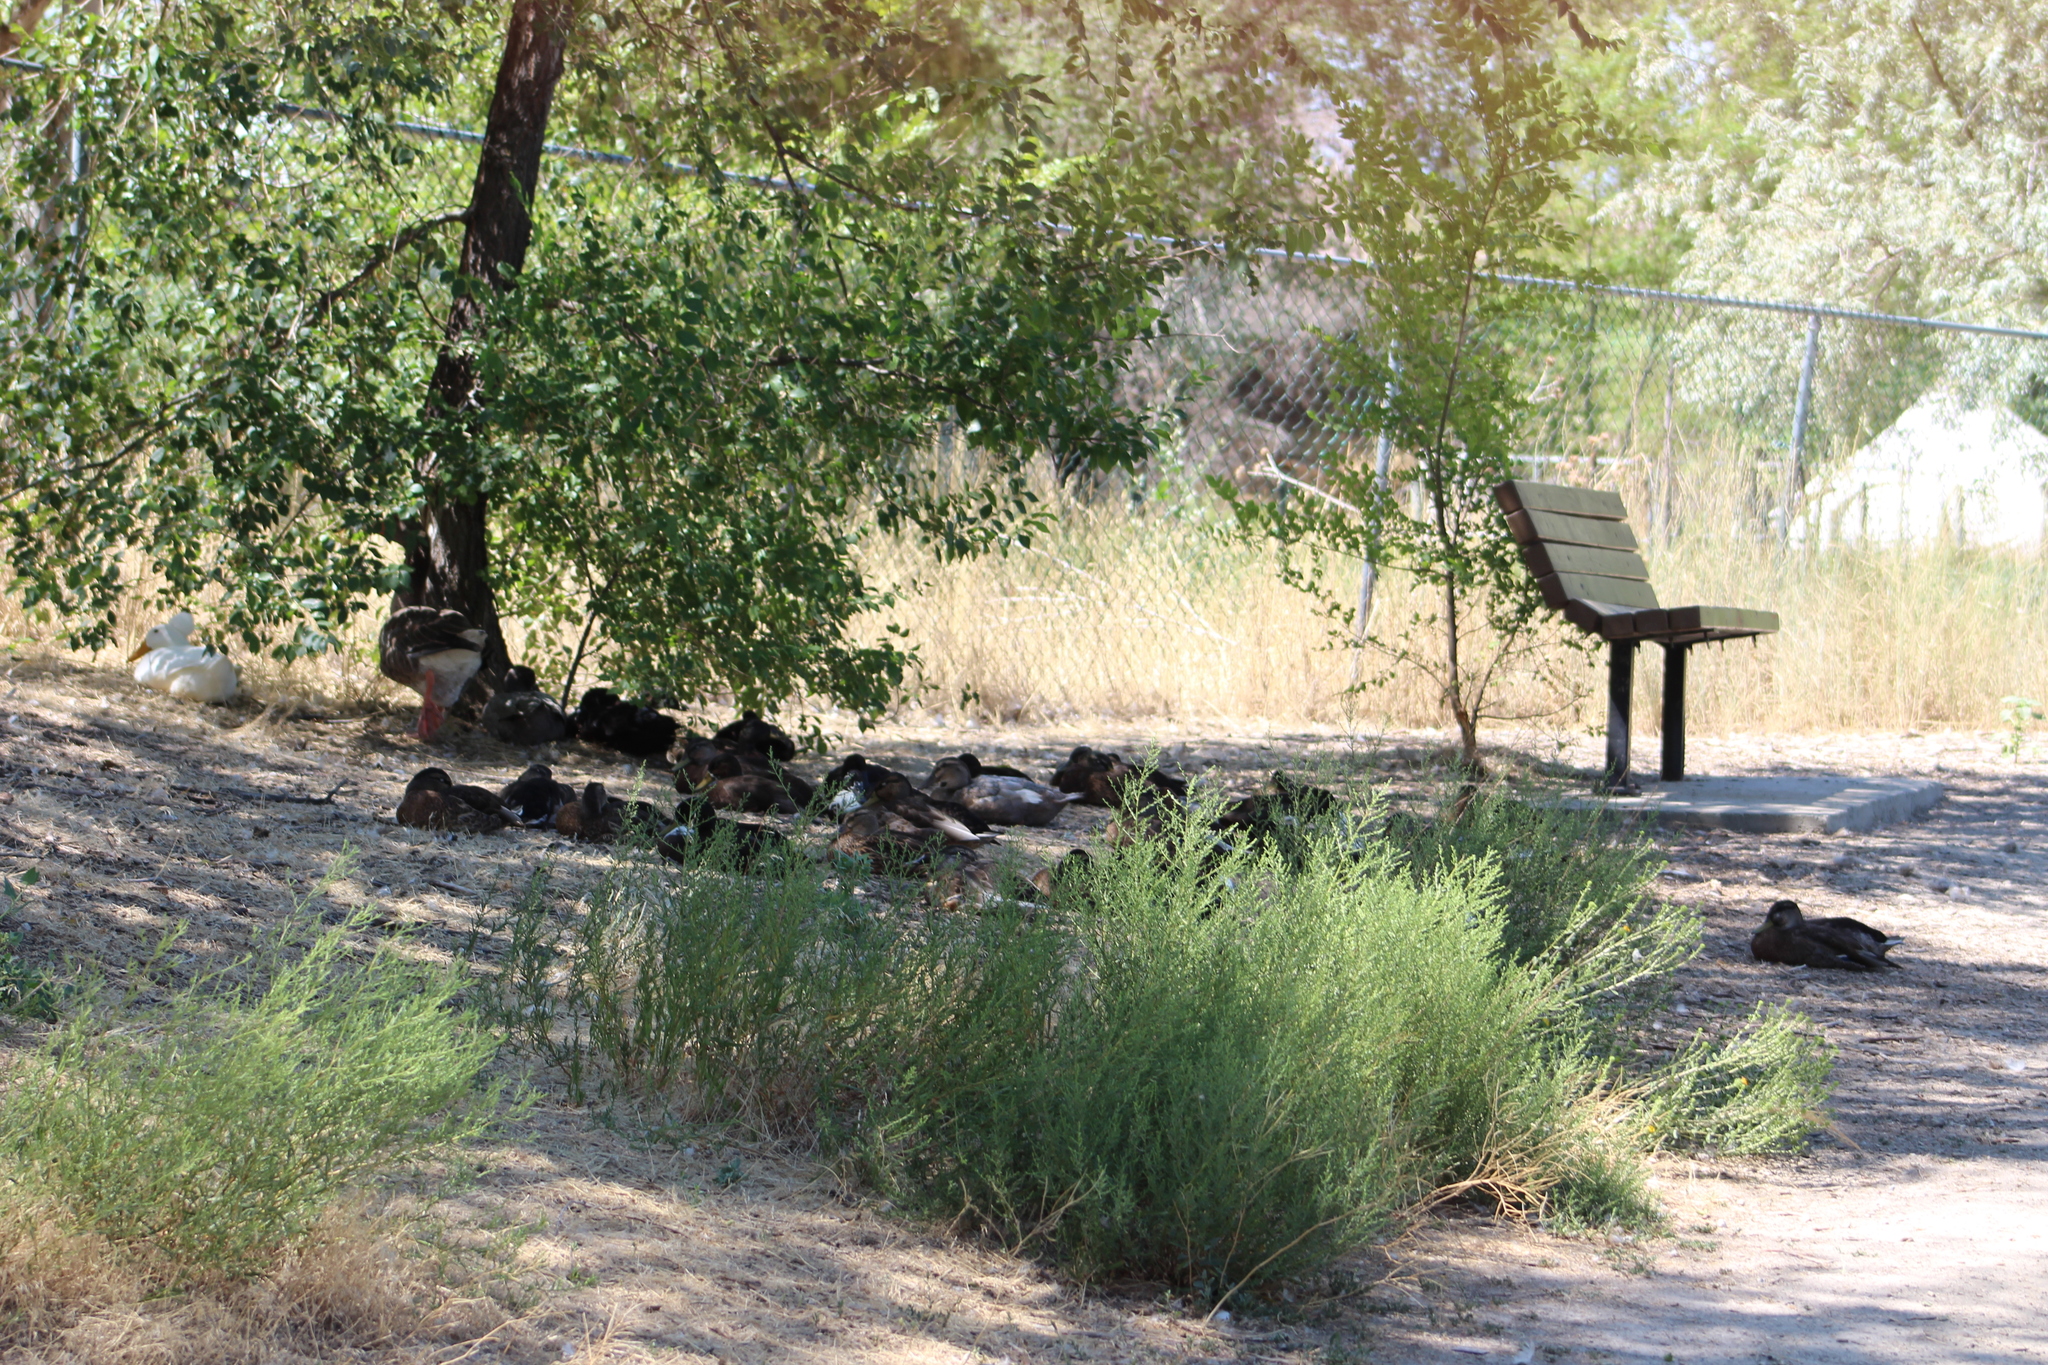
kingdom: Animalia
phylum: Chordata
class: Aves
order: Anseriformes
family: Anatidae
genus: Anas
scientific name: Anas platyrhynchos
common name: Mallard
